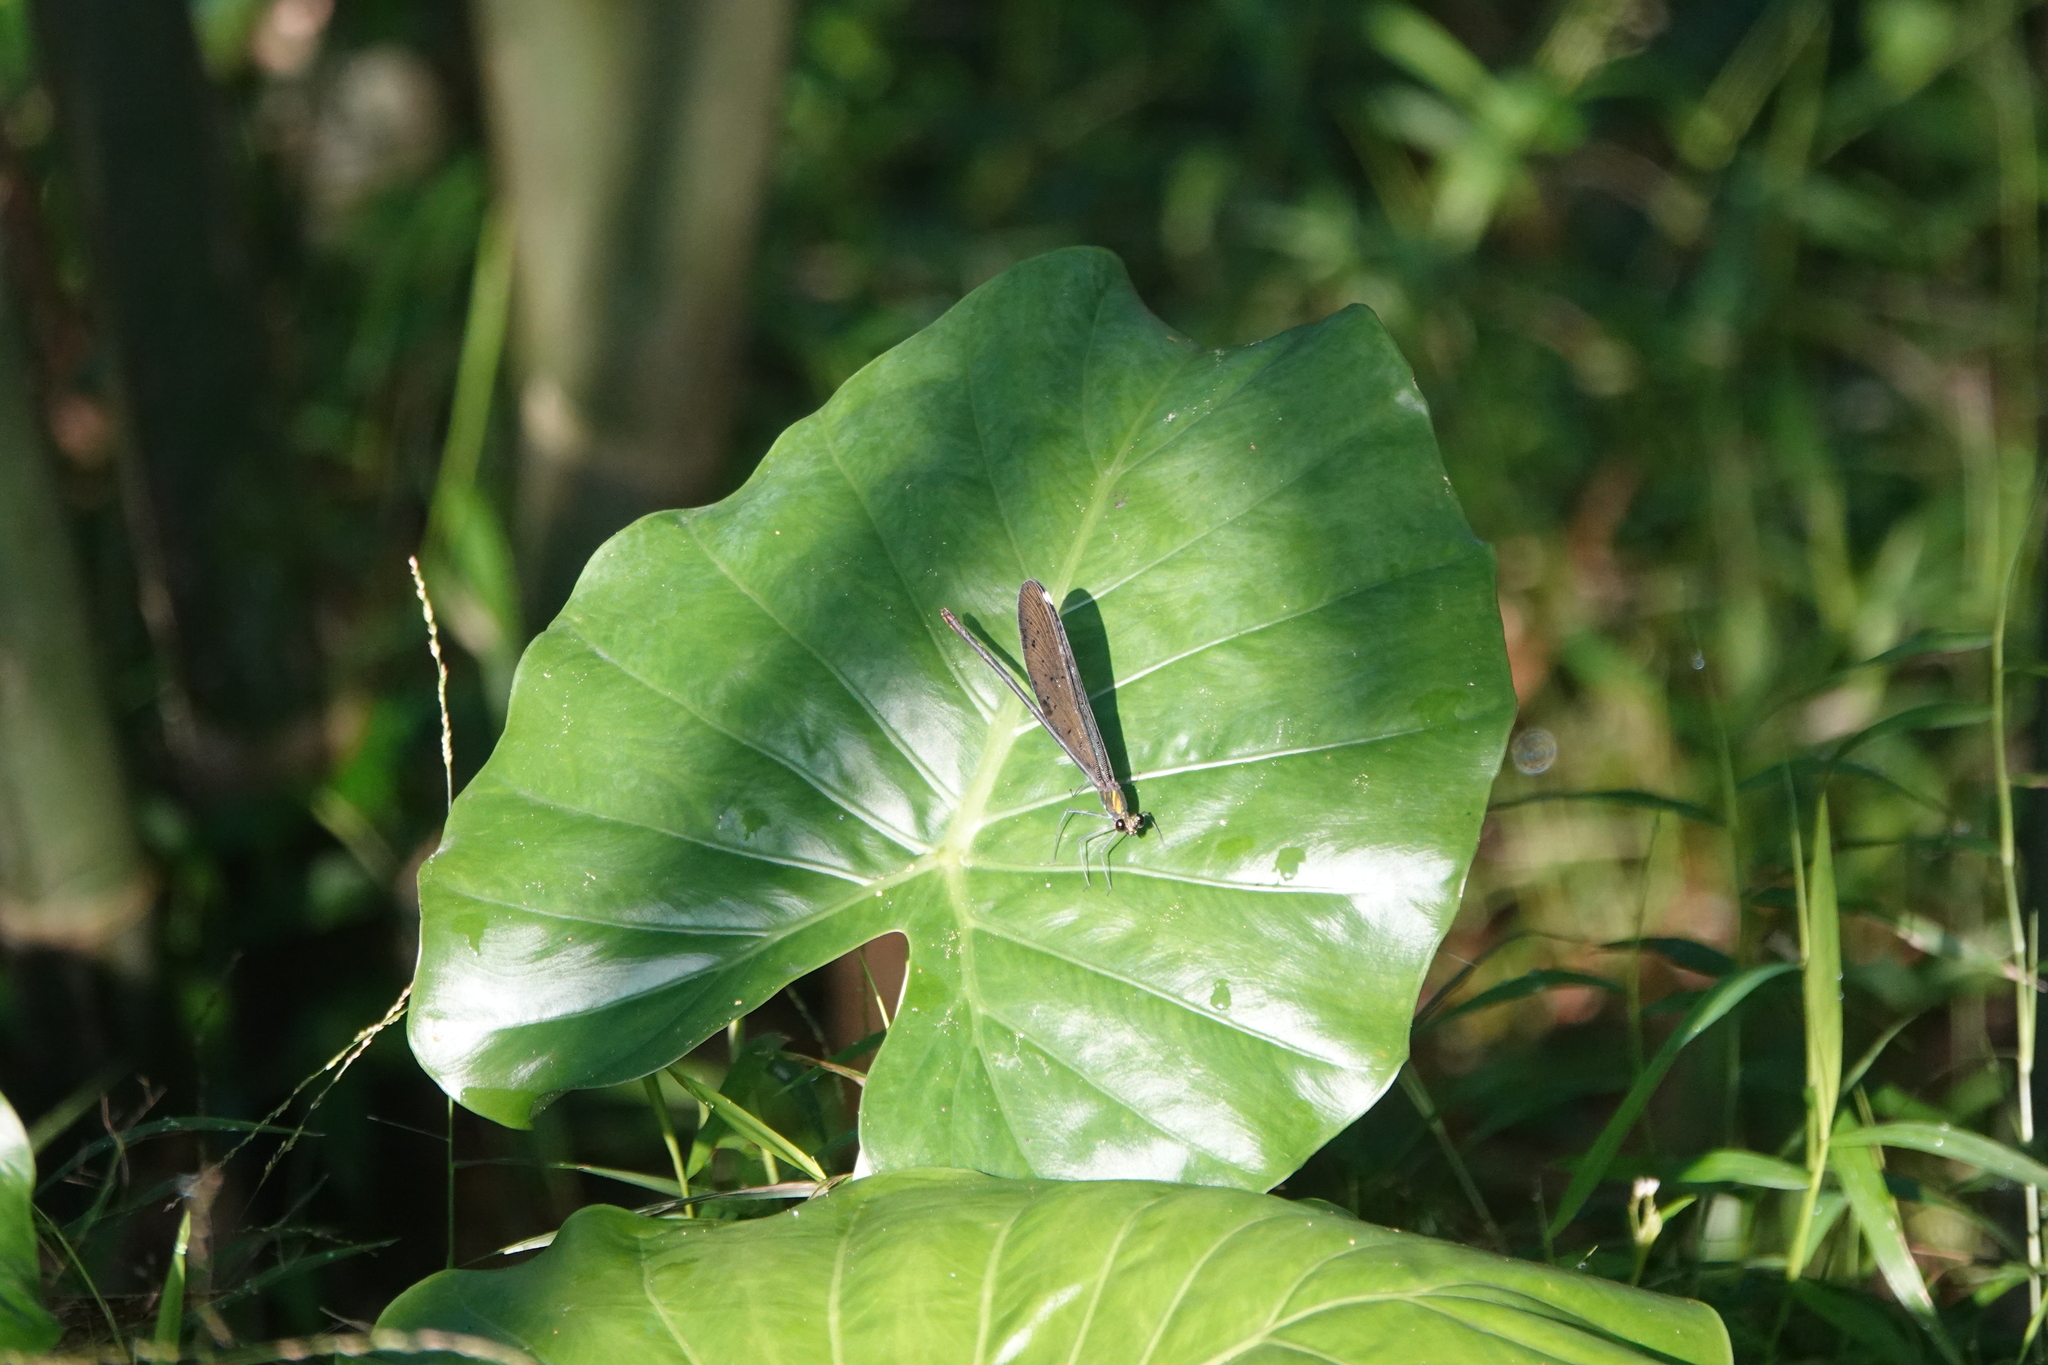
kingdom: Animalia
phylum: Arthropoda
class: Insecta
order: Odonata
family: Calopterygidae
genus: Matrona
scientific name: Matrona cyanoptera
